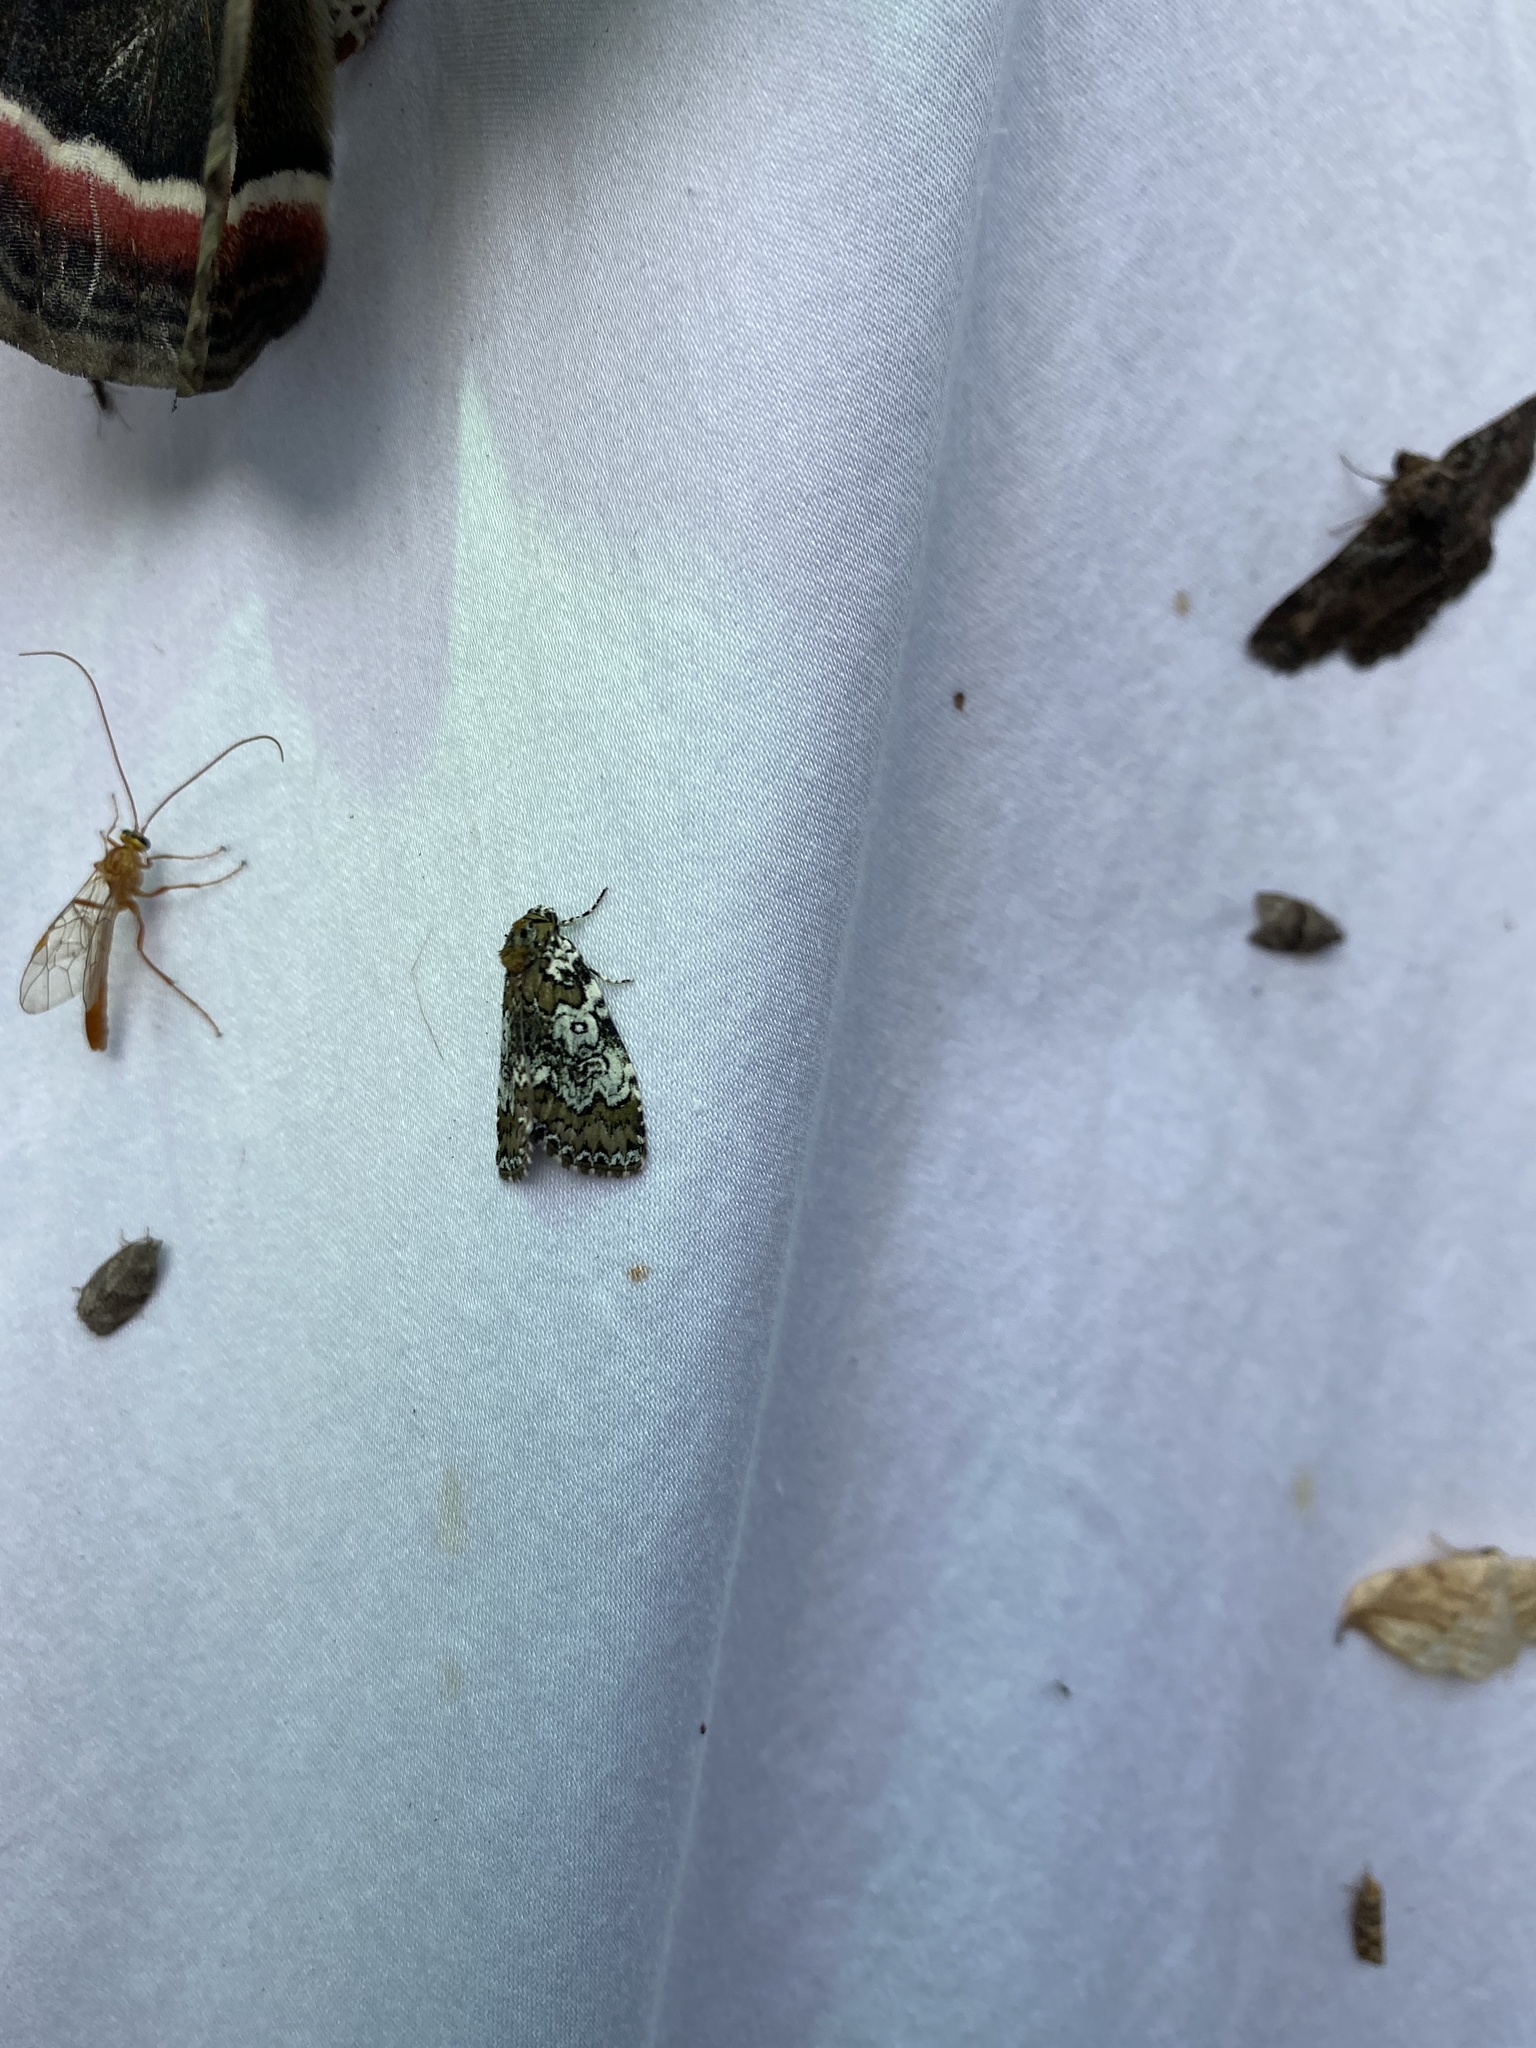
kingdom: Animalia
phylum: Arthropoda
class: Insecta
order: Lepidoptera
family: Noctuidae
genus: Cerma
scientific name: Cerma cora
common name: Bird dropping moth
